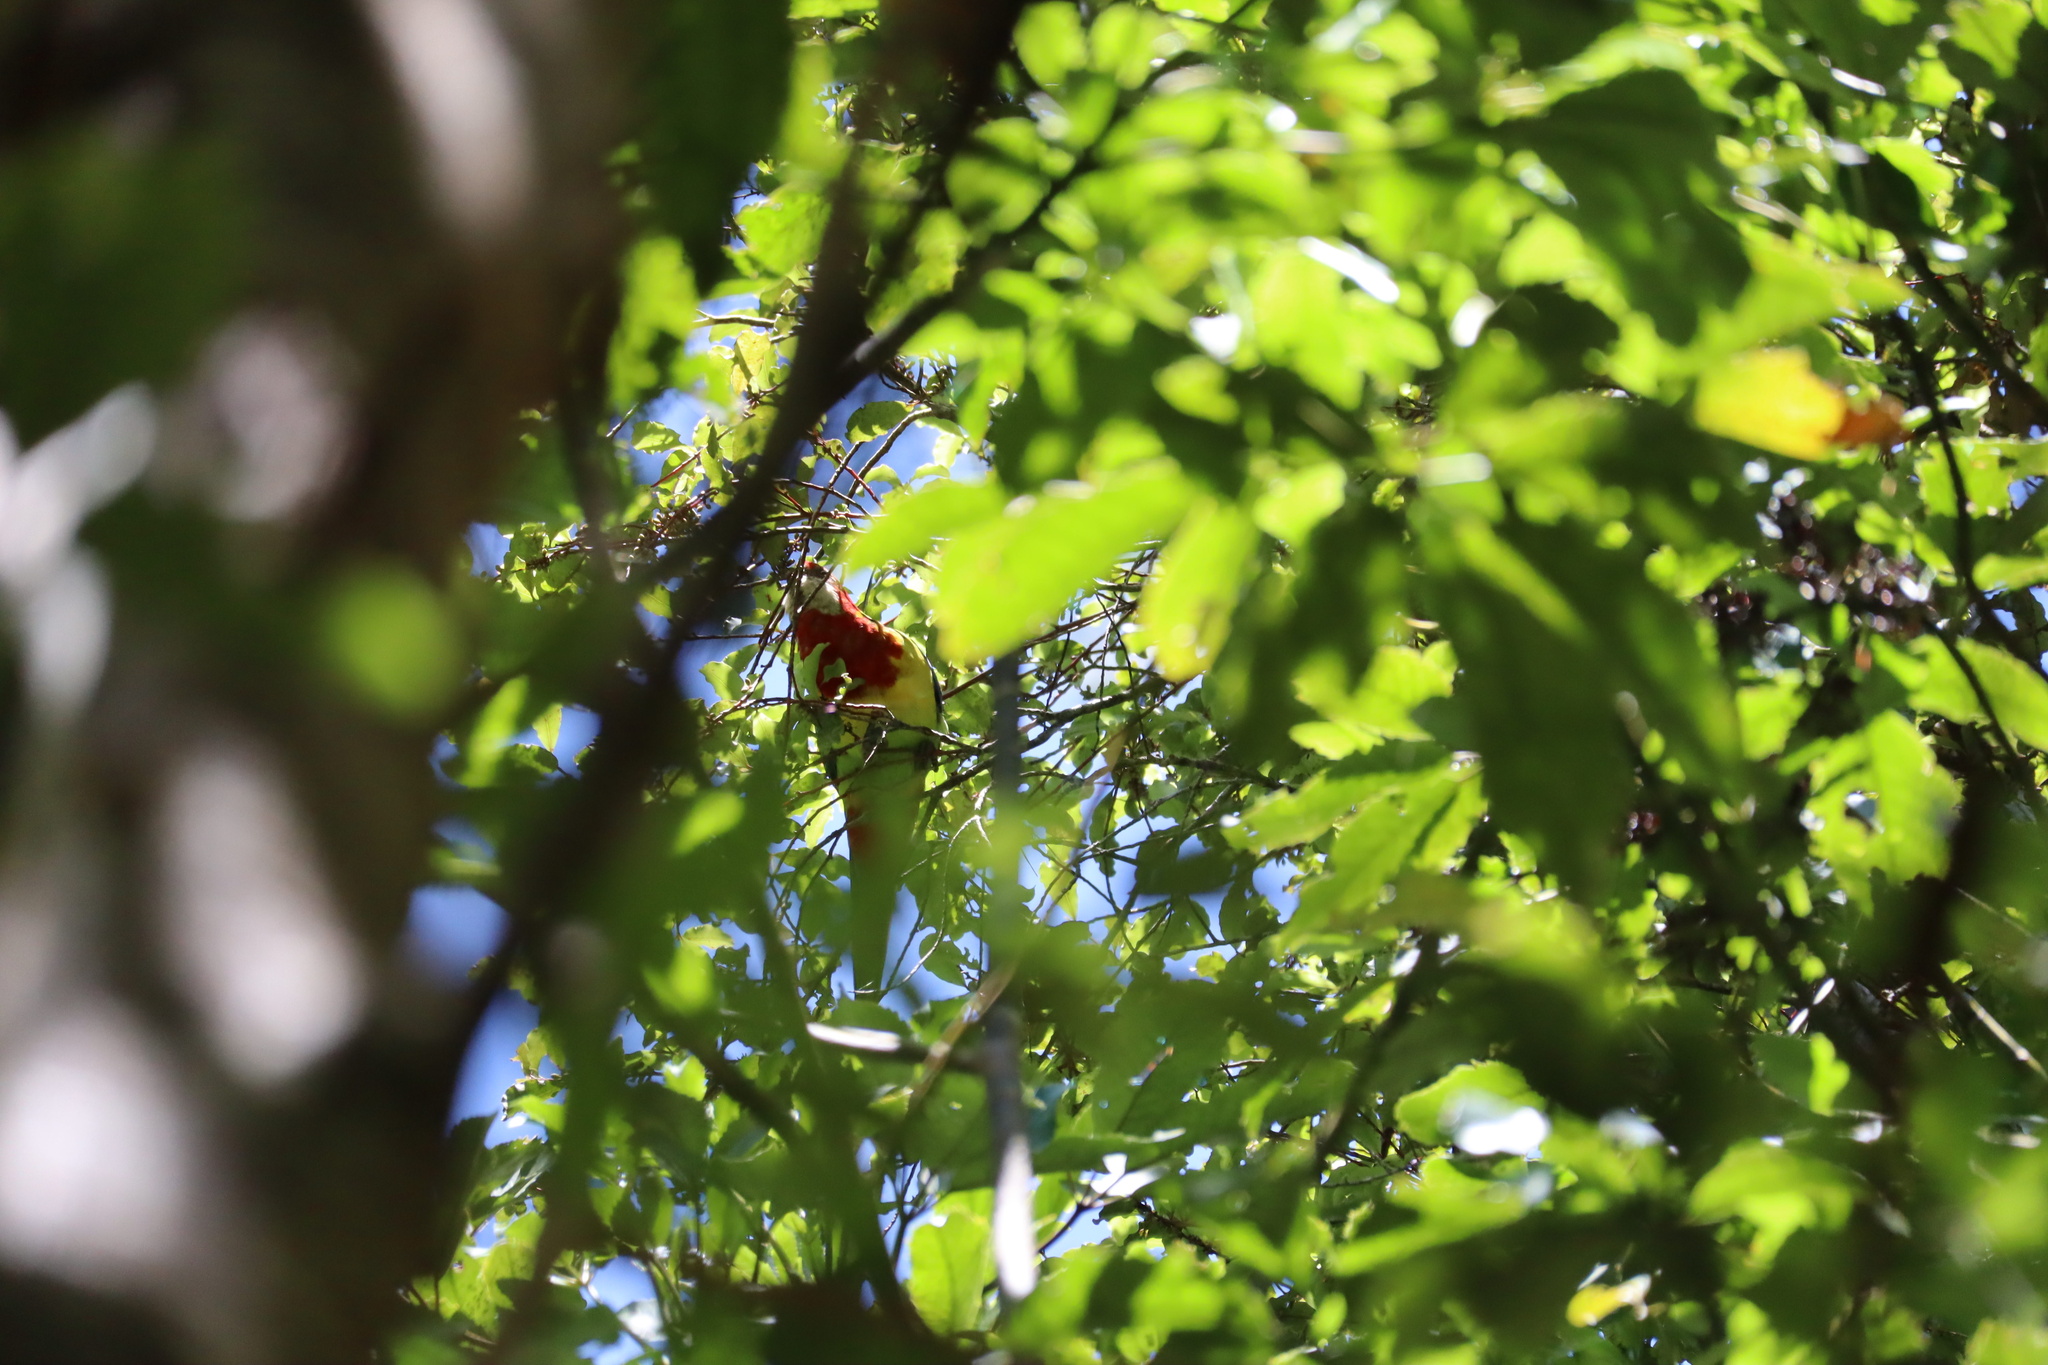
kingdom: Animalia
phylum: Chordata
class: Aves
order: Psittaciformes
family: Psittacidae
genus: Platycercus
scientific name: Platycercus eximius
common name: Eastern rosella
